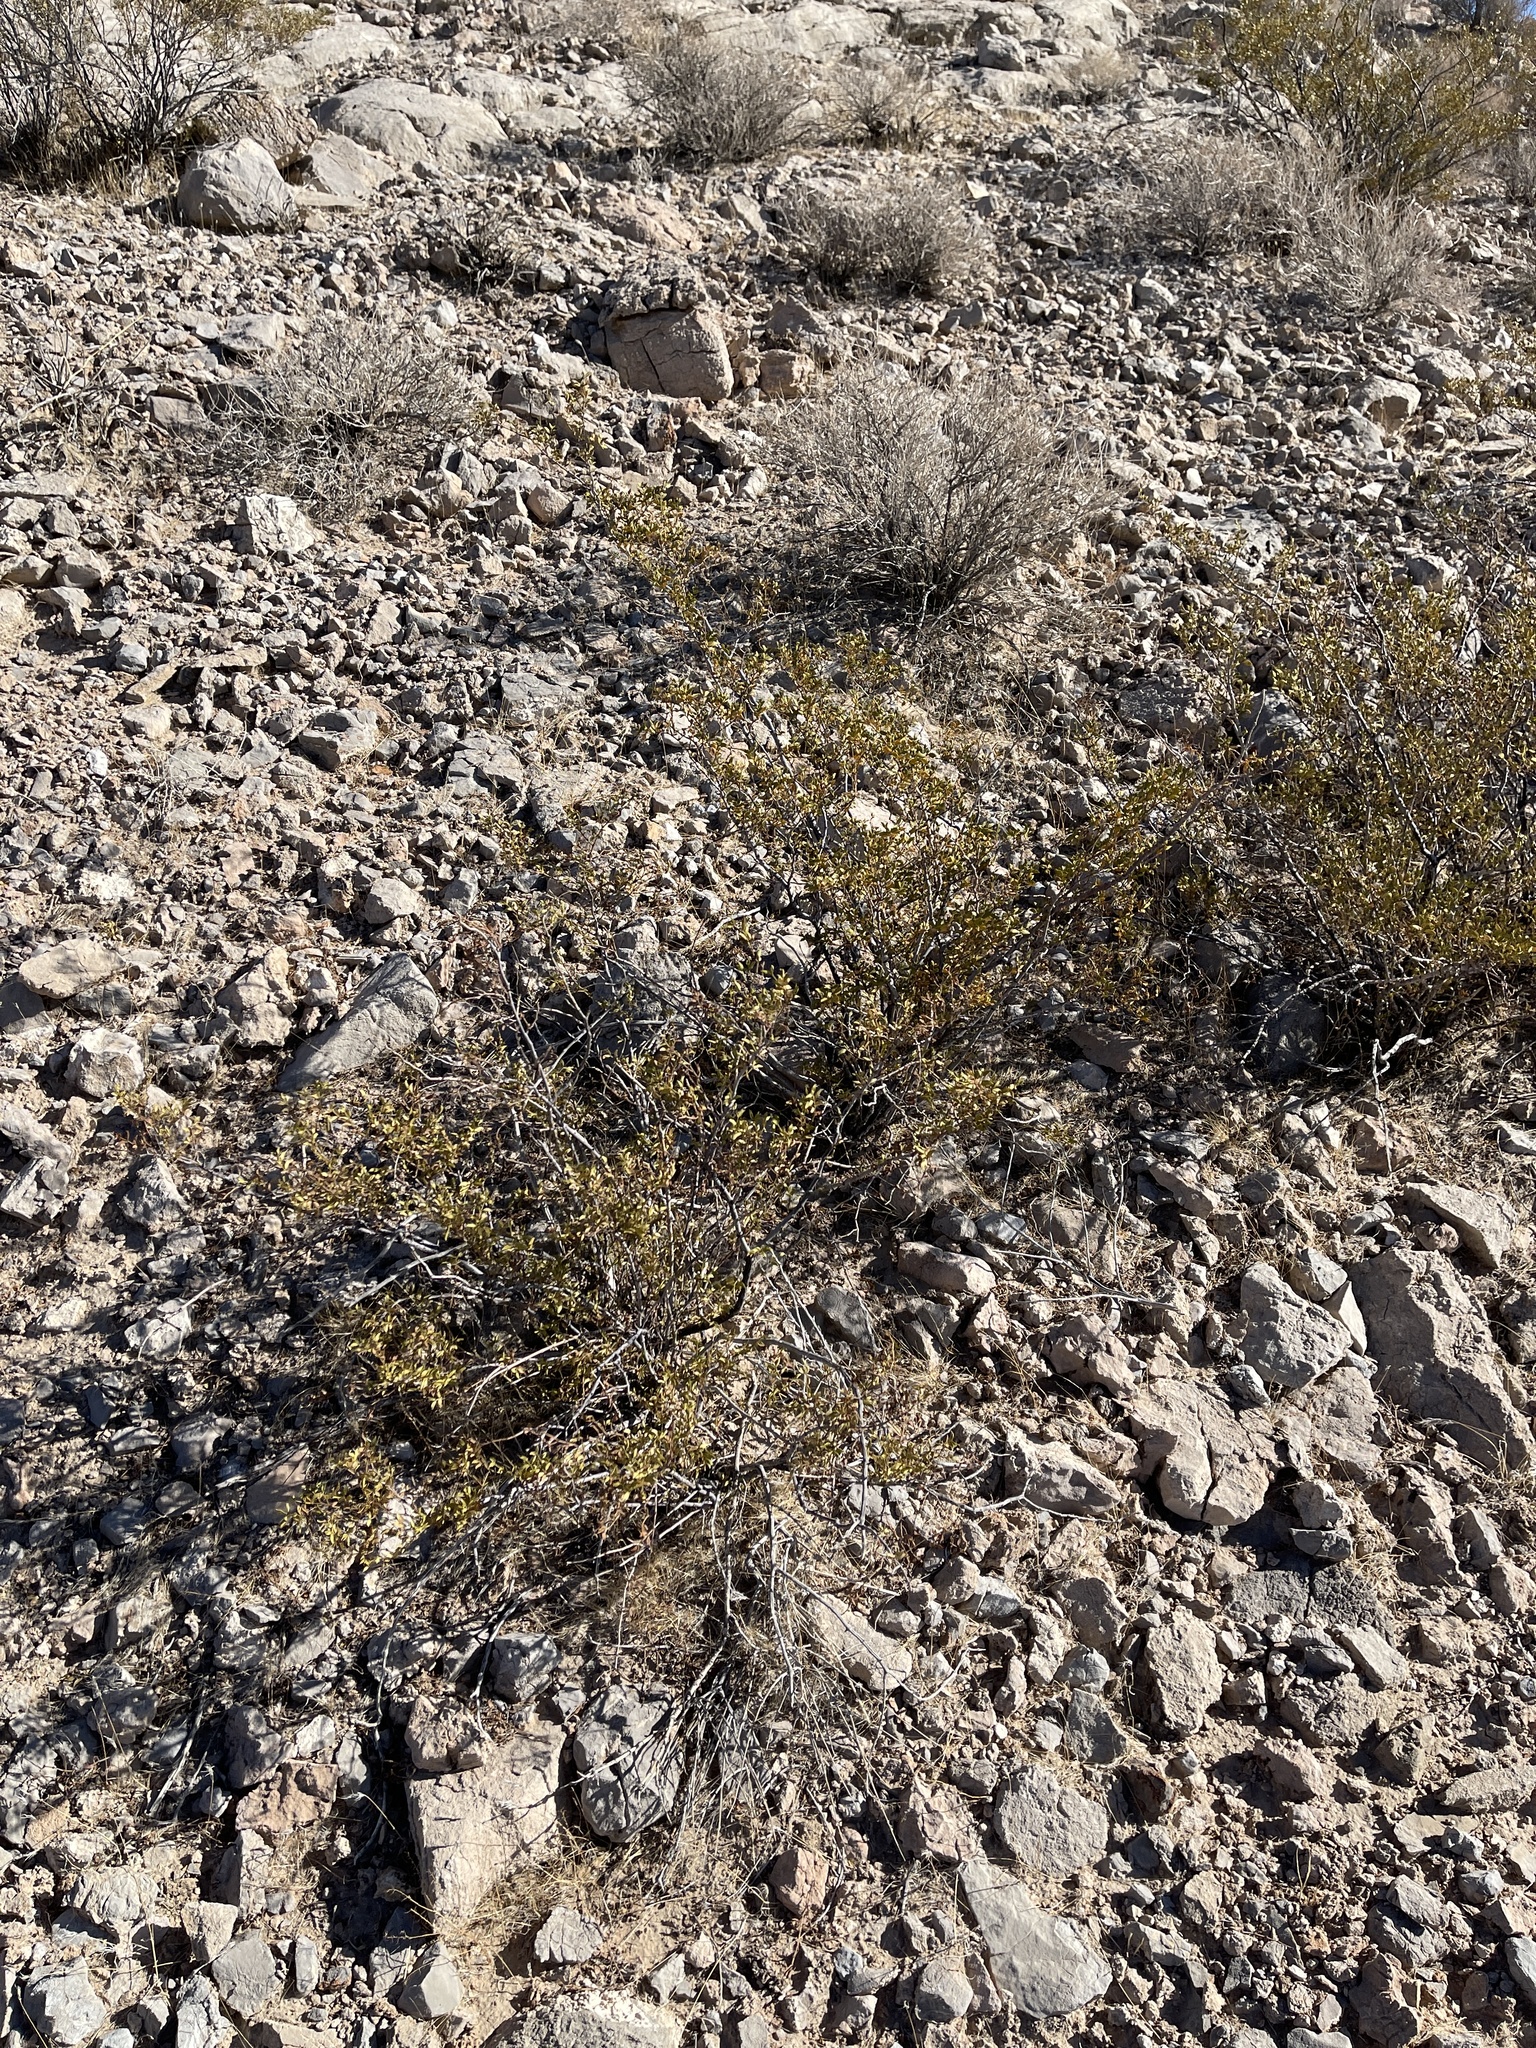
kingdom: Plantae
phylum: Tracheophyta
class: Magnoliopsida
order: Zygophyllales
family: Zygophyllaceae
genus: Larrea
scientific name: Larrea tridentata
